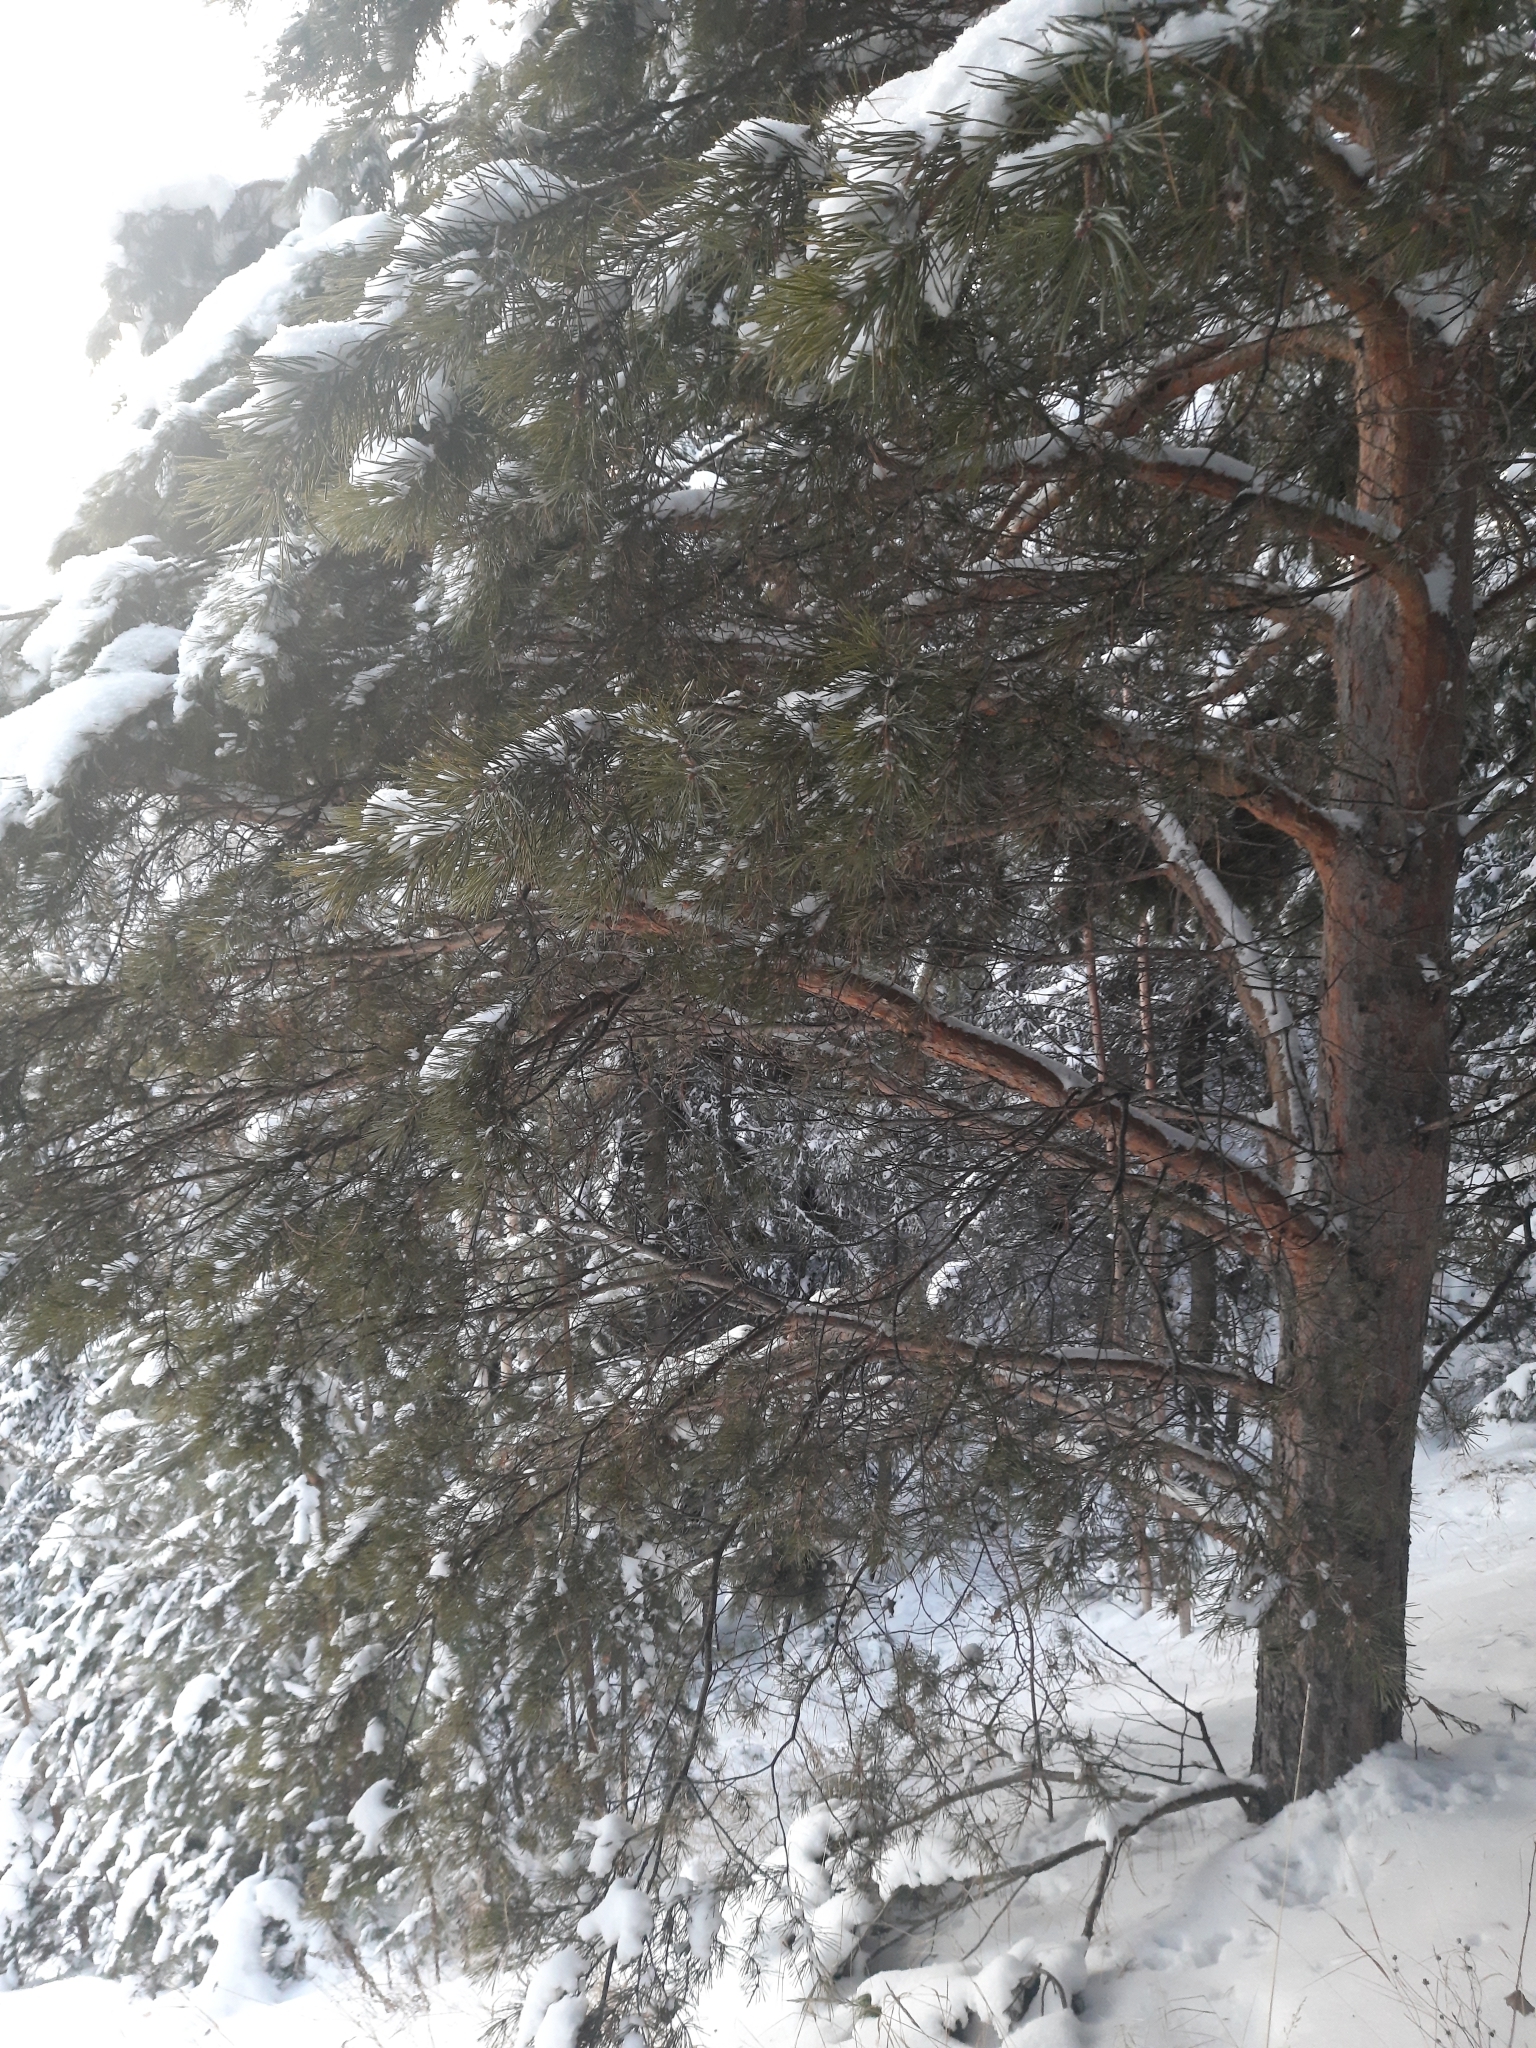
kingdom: Plantae
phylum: Tracheophyta
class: Pinopsida
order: Pinales
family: Pinaceae
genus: Pinus
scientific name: Pinus sylvestris
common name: Scots pine
